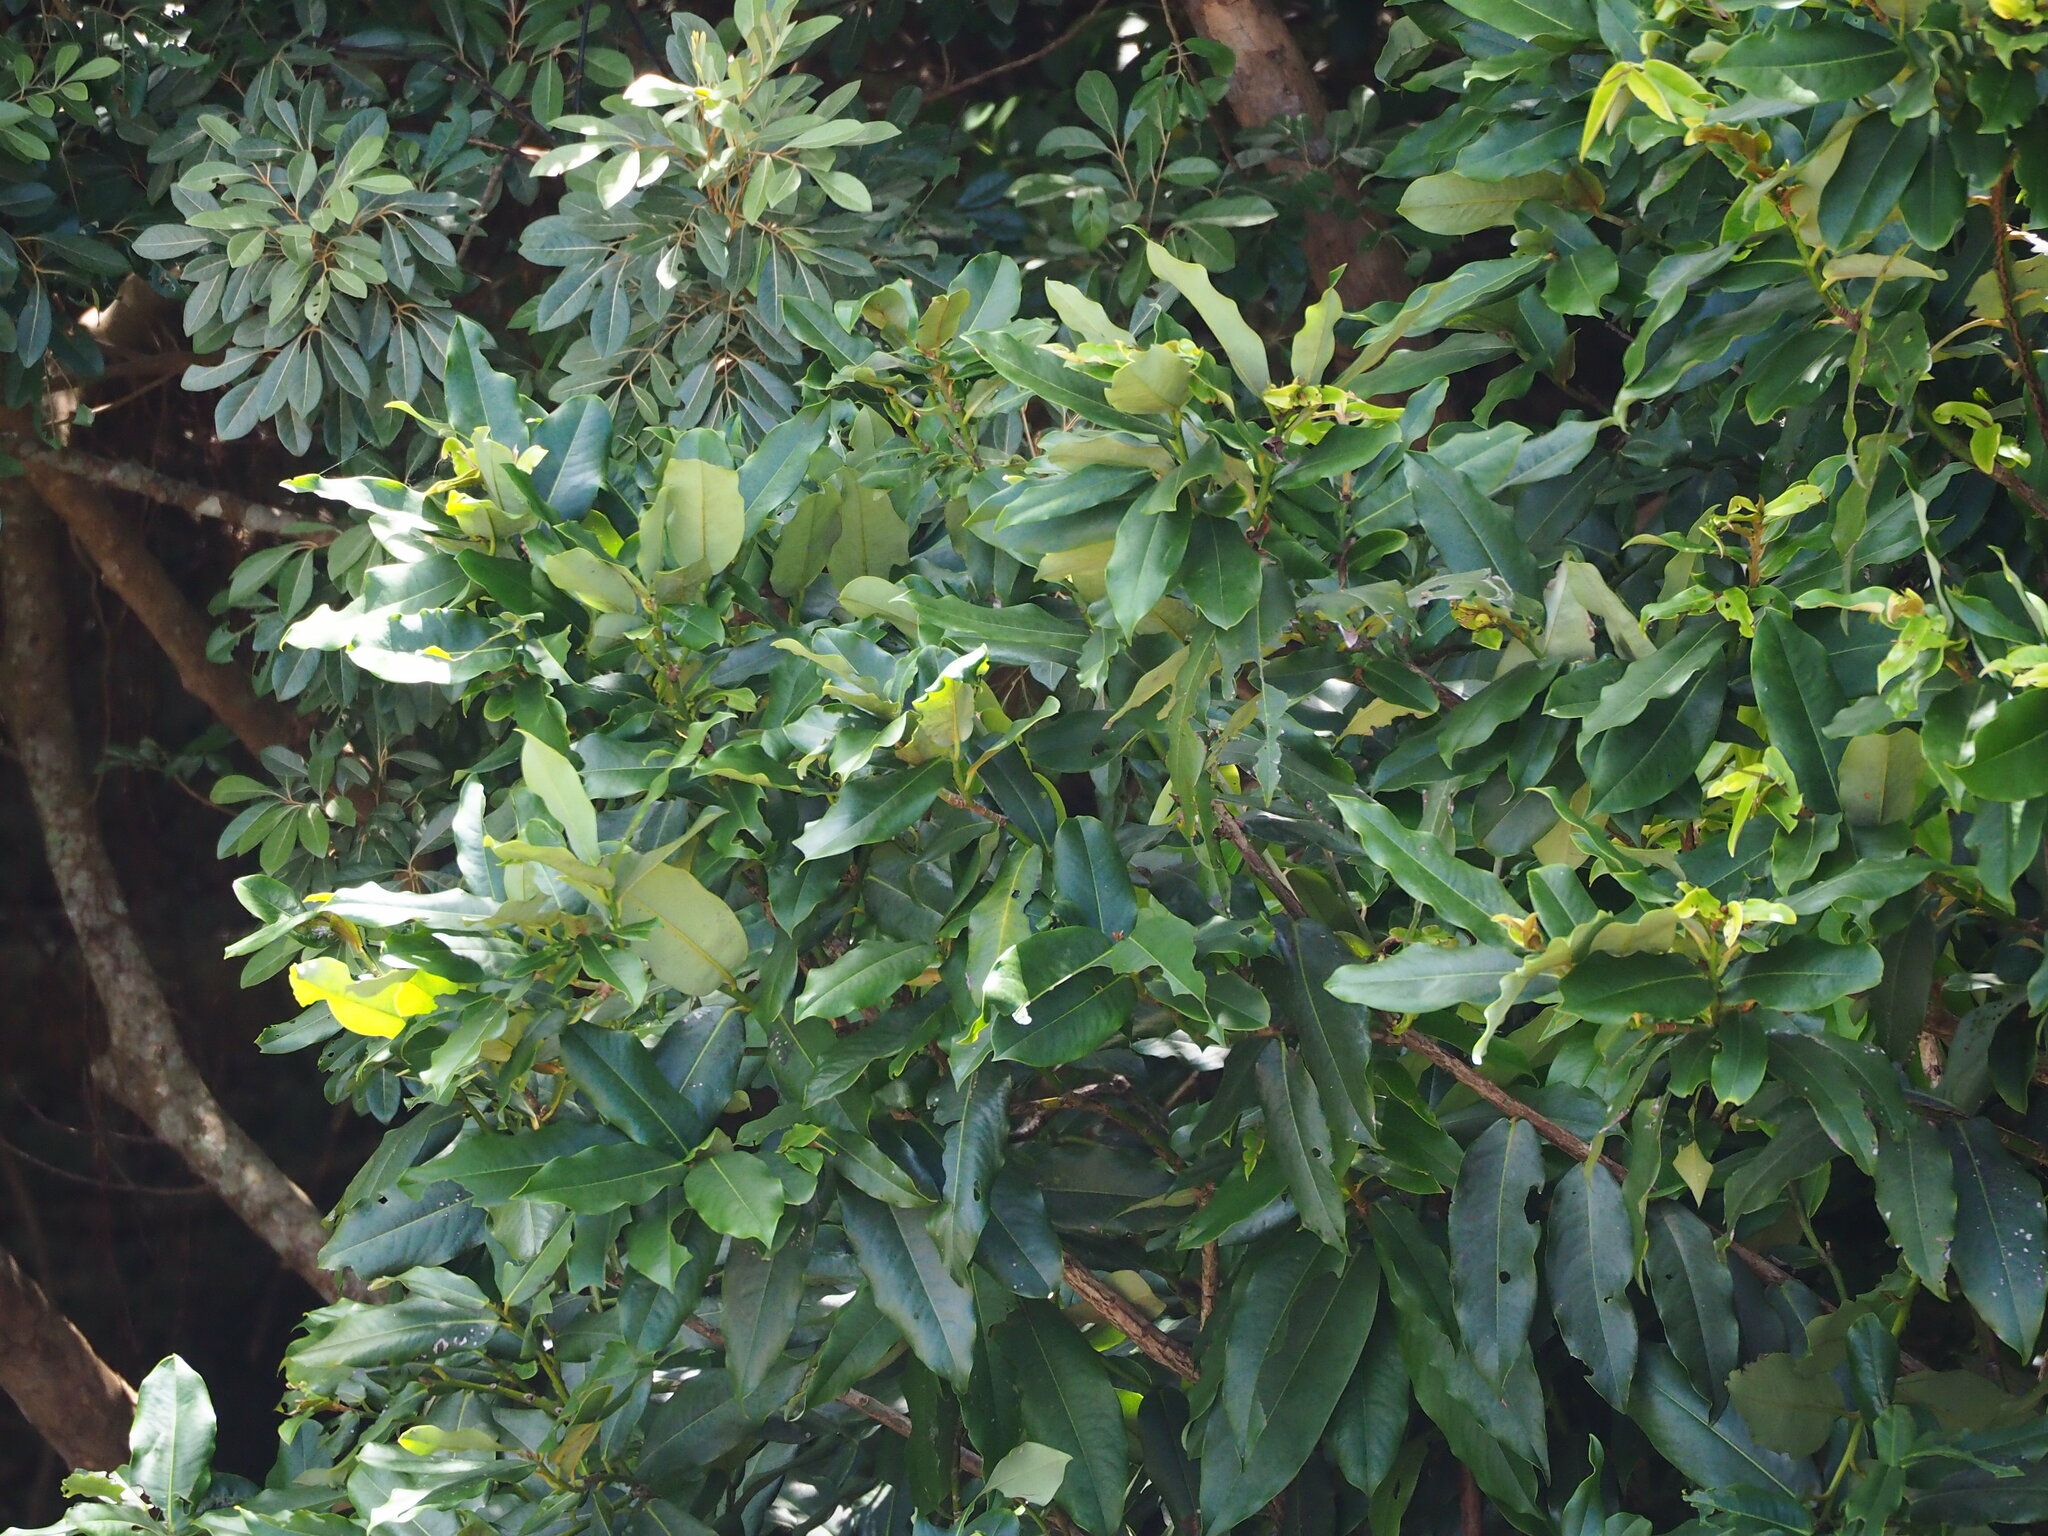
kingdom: Plantae
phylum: Tracheophyta
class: Magnoliopsida
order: Ericales
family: Ebenaceae
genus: Diospyros
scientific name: Diospyros blancoi
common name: Mabola-tree
